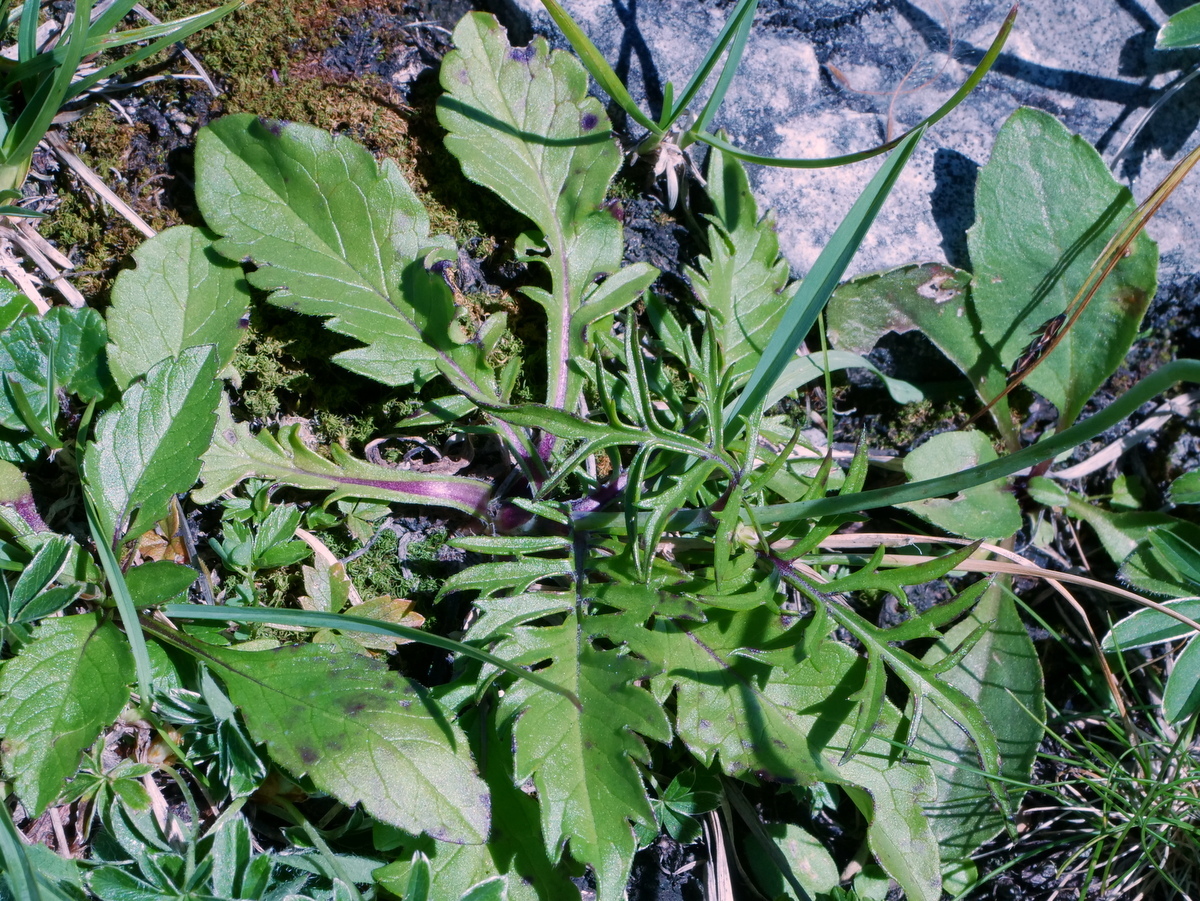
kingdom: Plantae
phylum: Tracheophyta
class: Magnoliopsida
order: Dipsacales
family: Caprifoliaceae
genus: Scabiosa
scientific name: Scabiosa lucida
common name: Shining scabious
